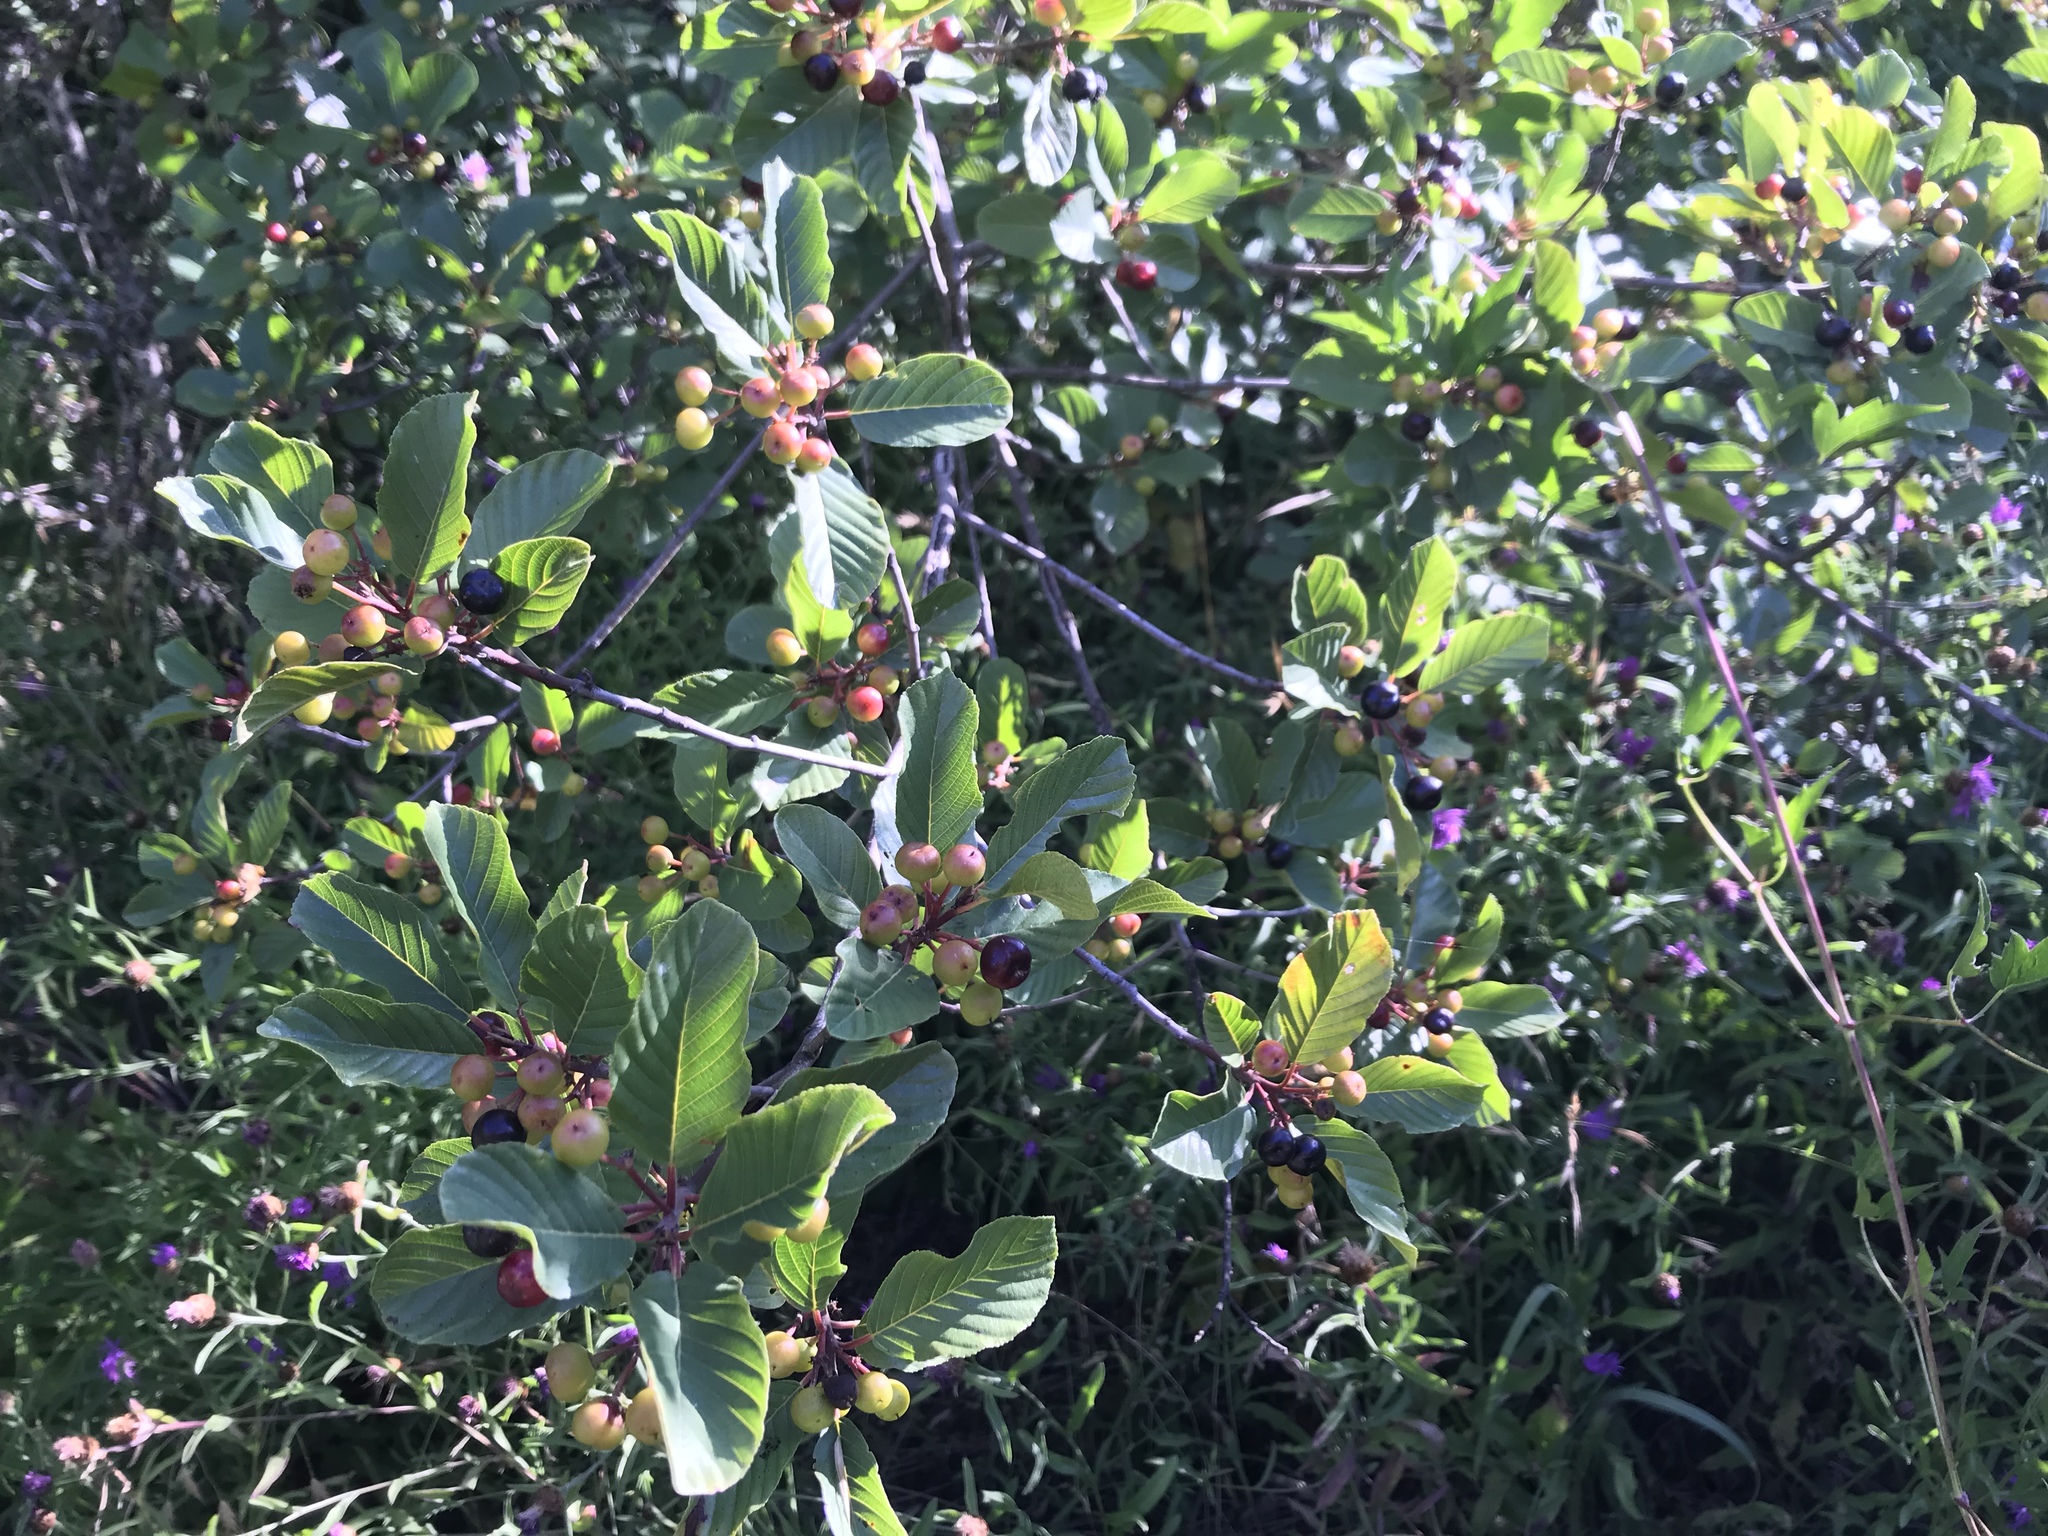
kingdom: Plantae
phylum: Tracheophyta
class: Magnoliopsida
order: Rosales
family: Rhamnaceae
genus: Frangula
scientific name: Frangula purshiana
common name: Cascara buckthorn
